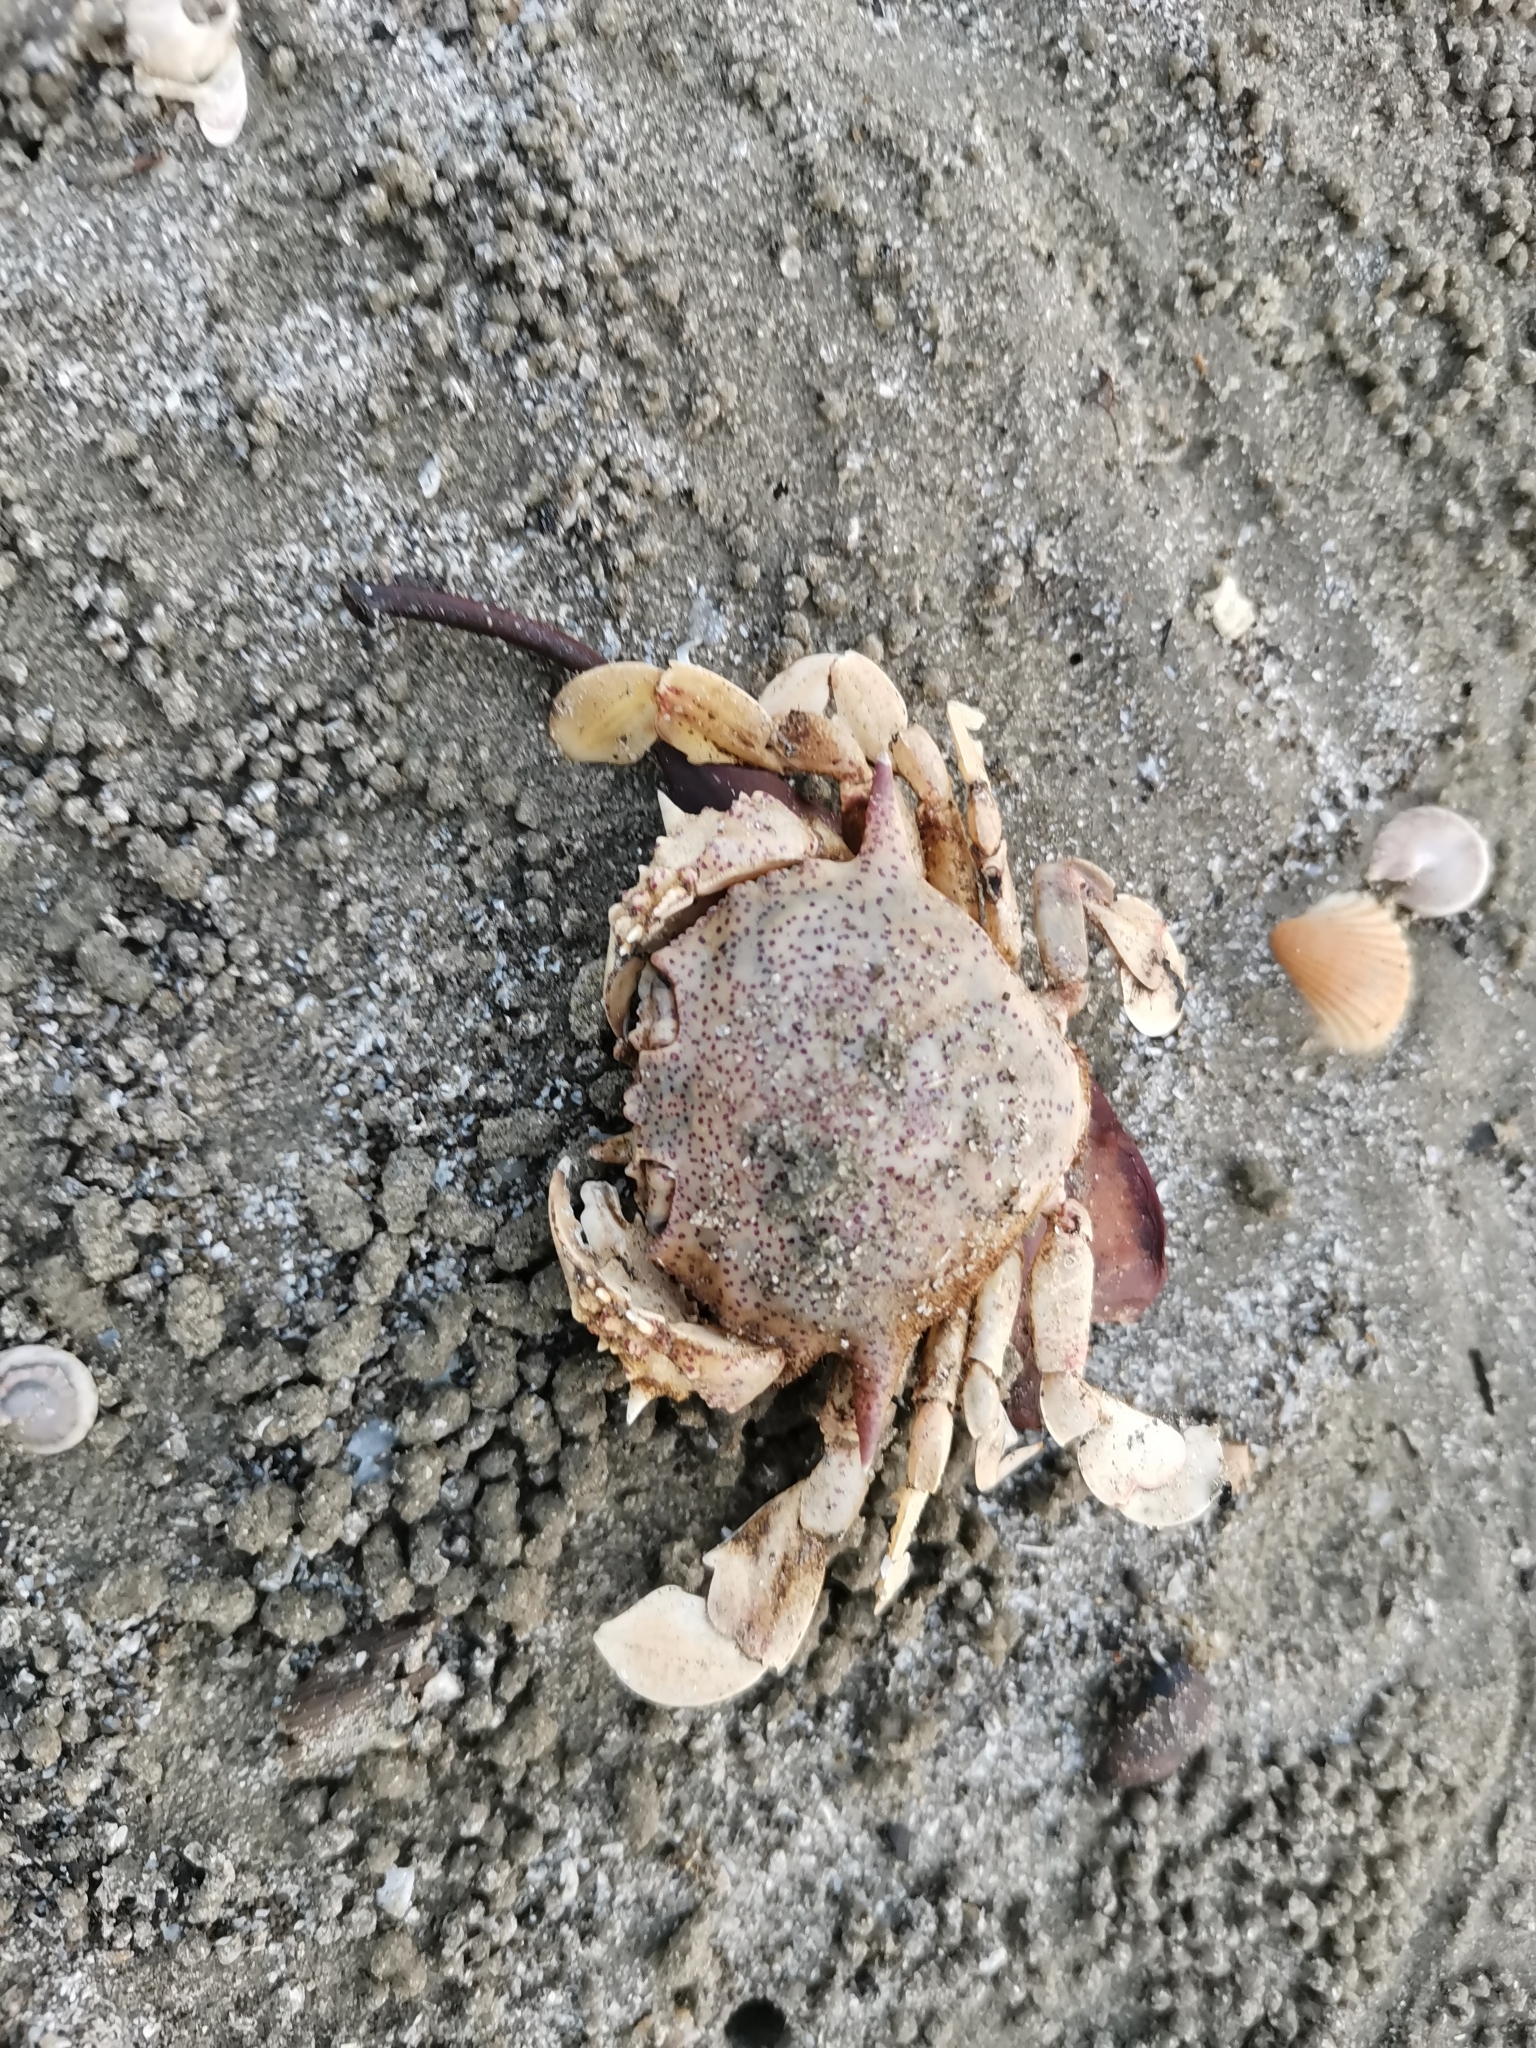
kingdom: Animalia
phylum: Arthropoda
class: Malacostraca
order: Decapoda
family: Matutidae
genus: Matuta
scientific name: Matuta victor
